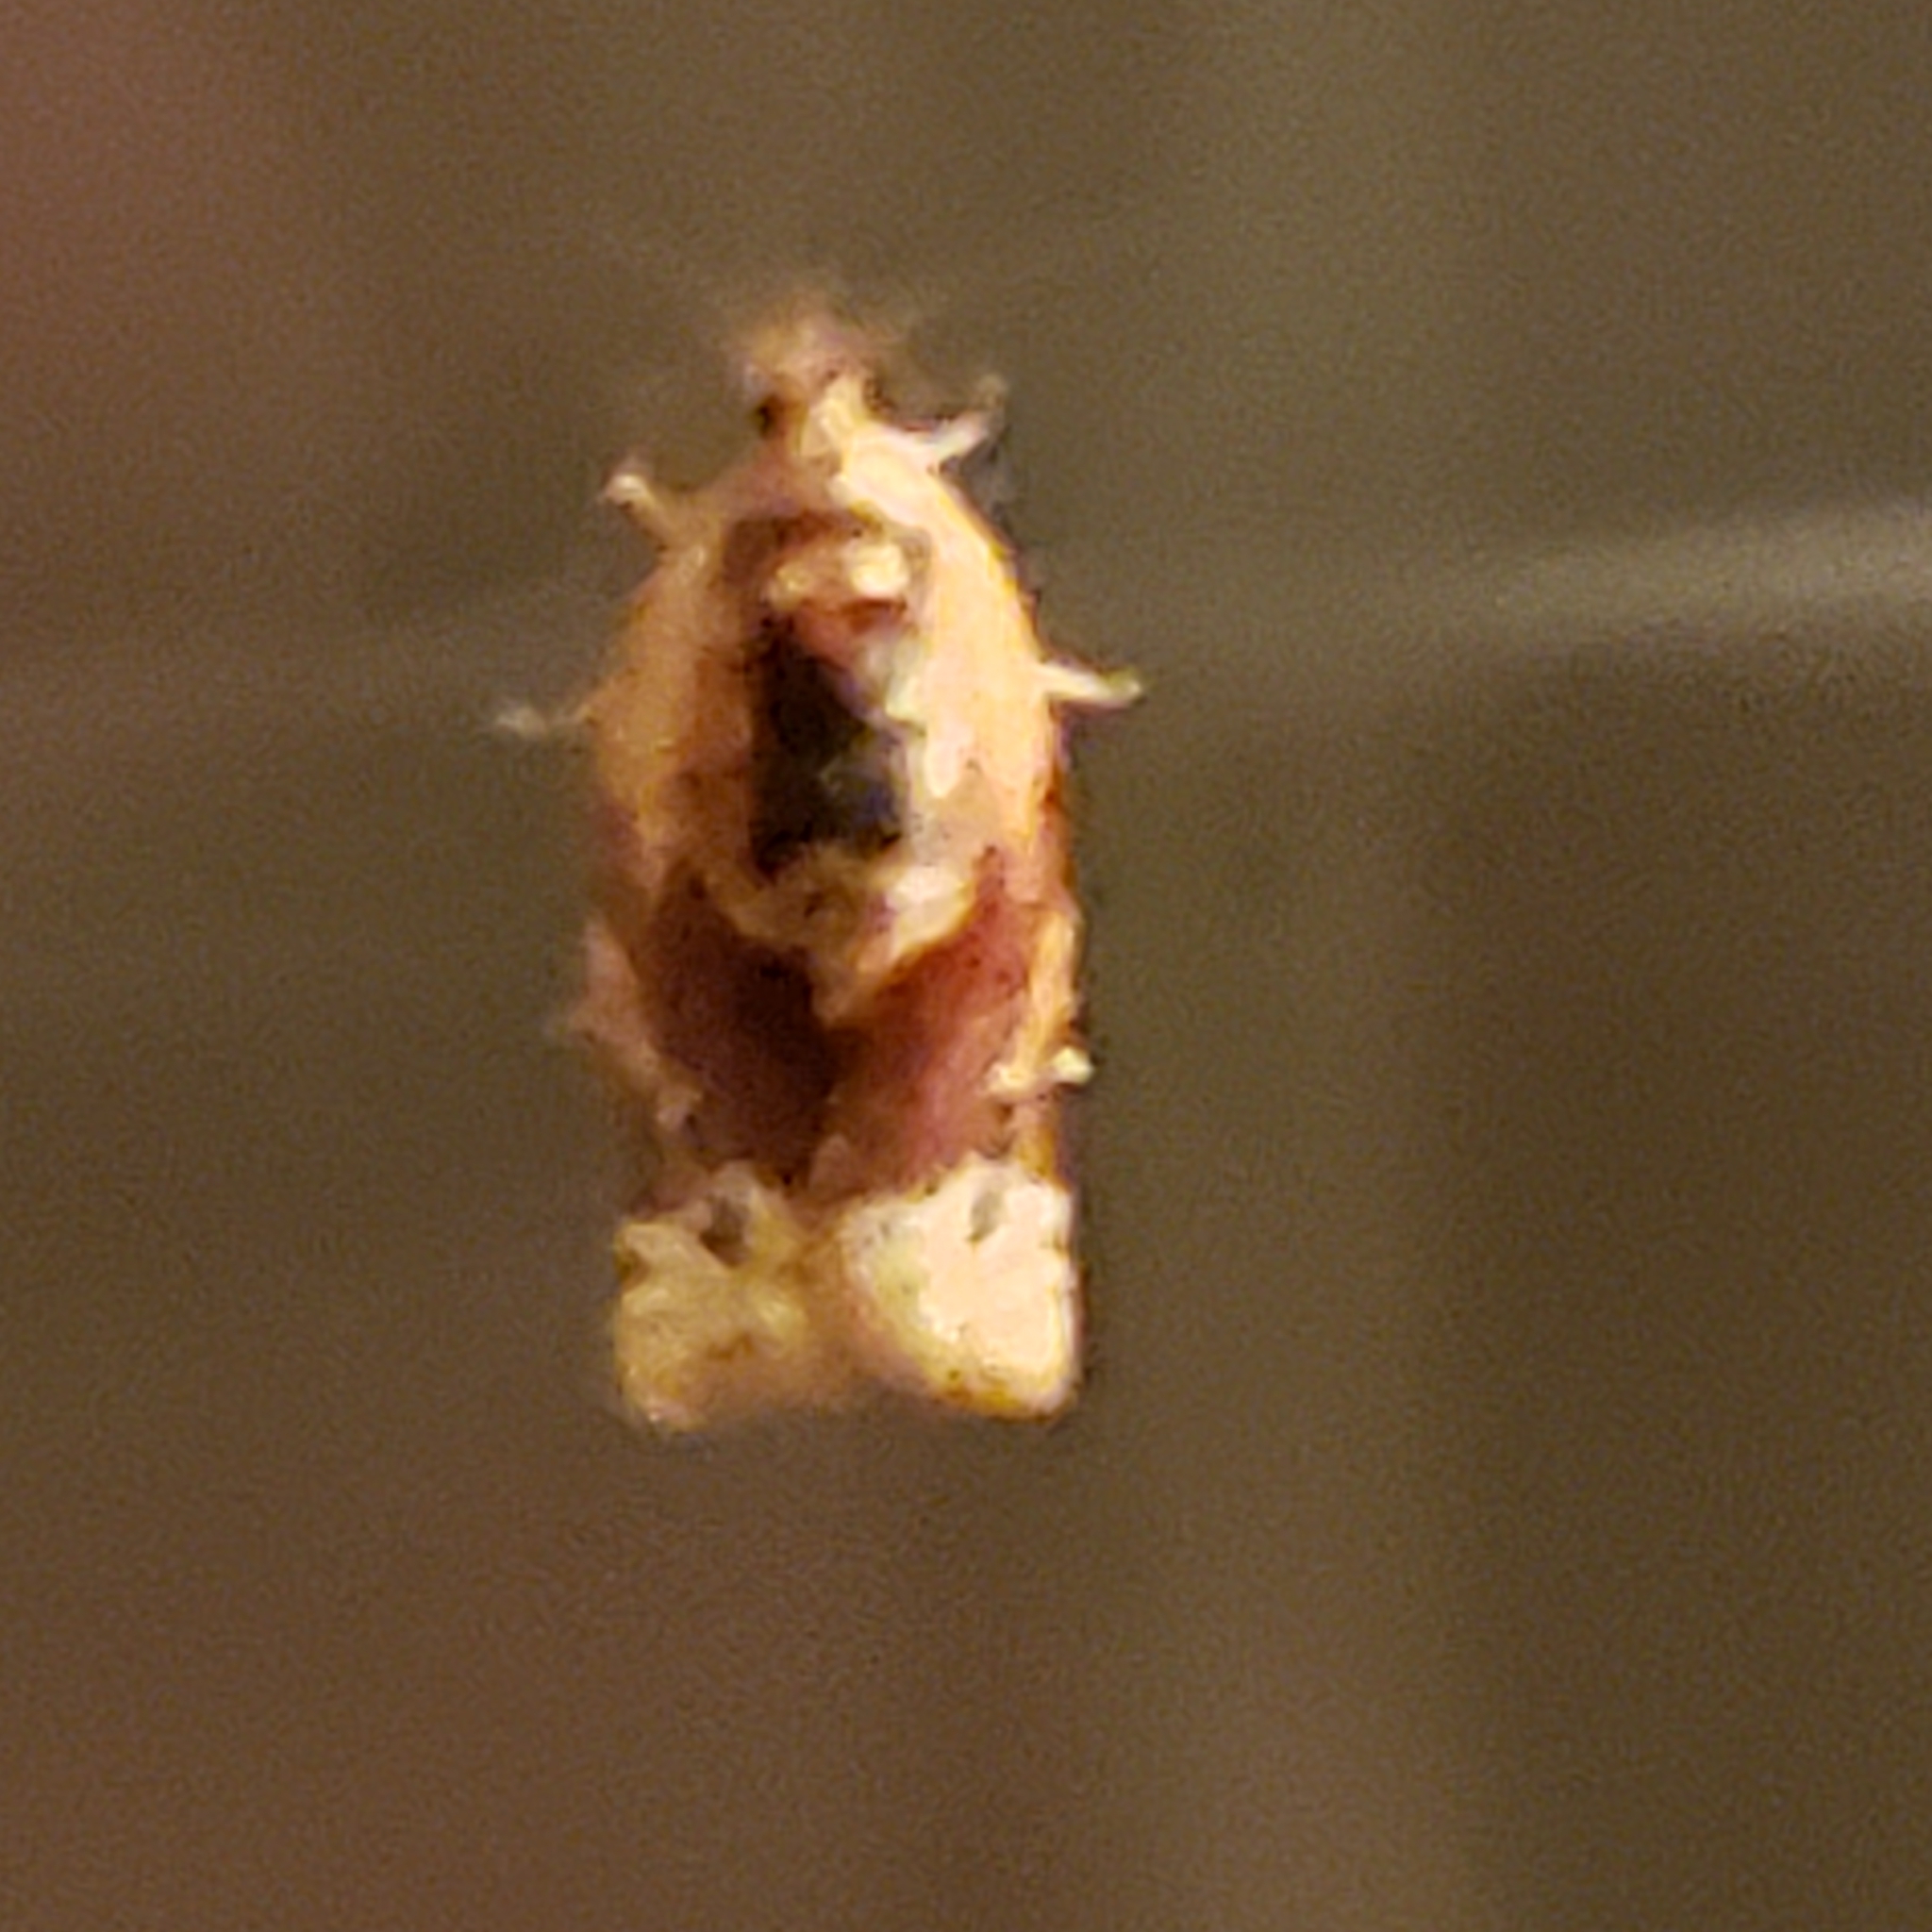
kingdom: Animalia
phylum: Arthropoda
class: Insecta
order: Lepidoptera
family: Tortricidae
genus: Argyrotaenia
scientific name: Argyrotaenia velutinana
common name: Red-banded leafroller moth
